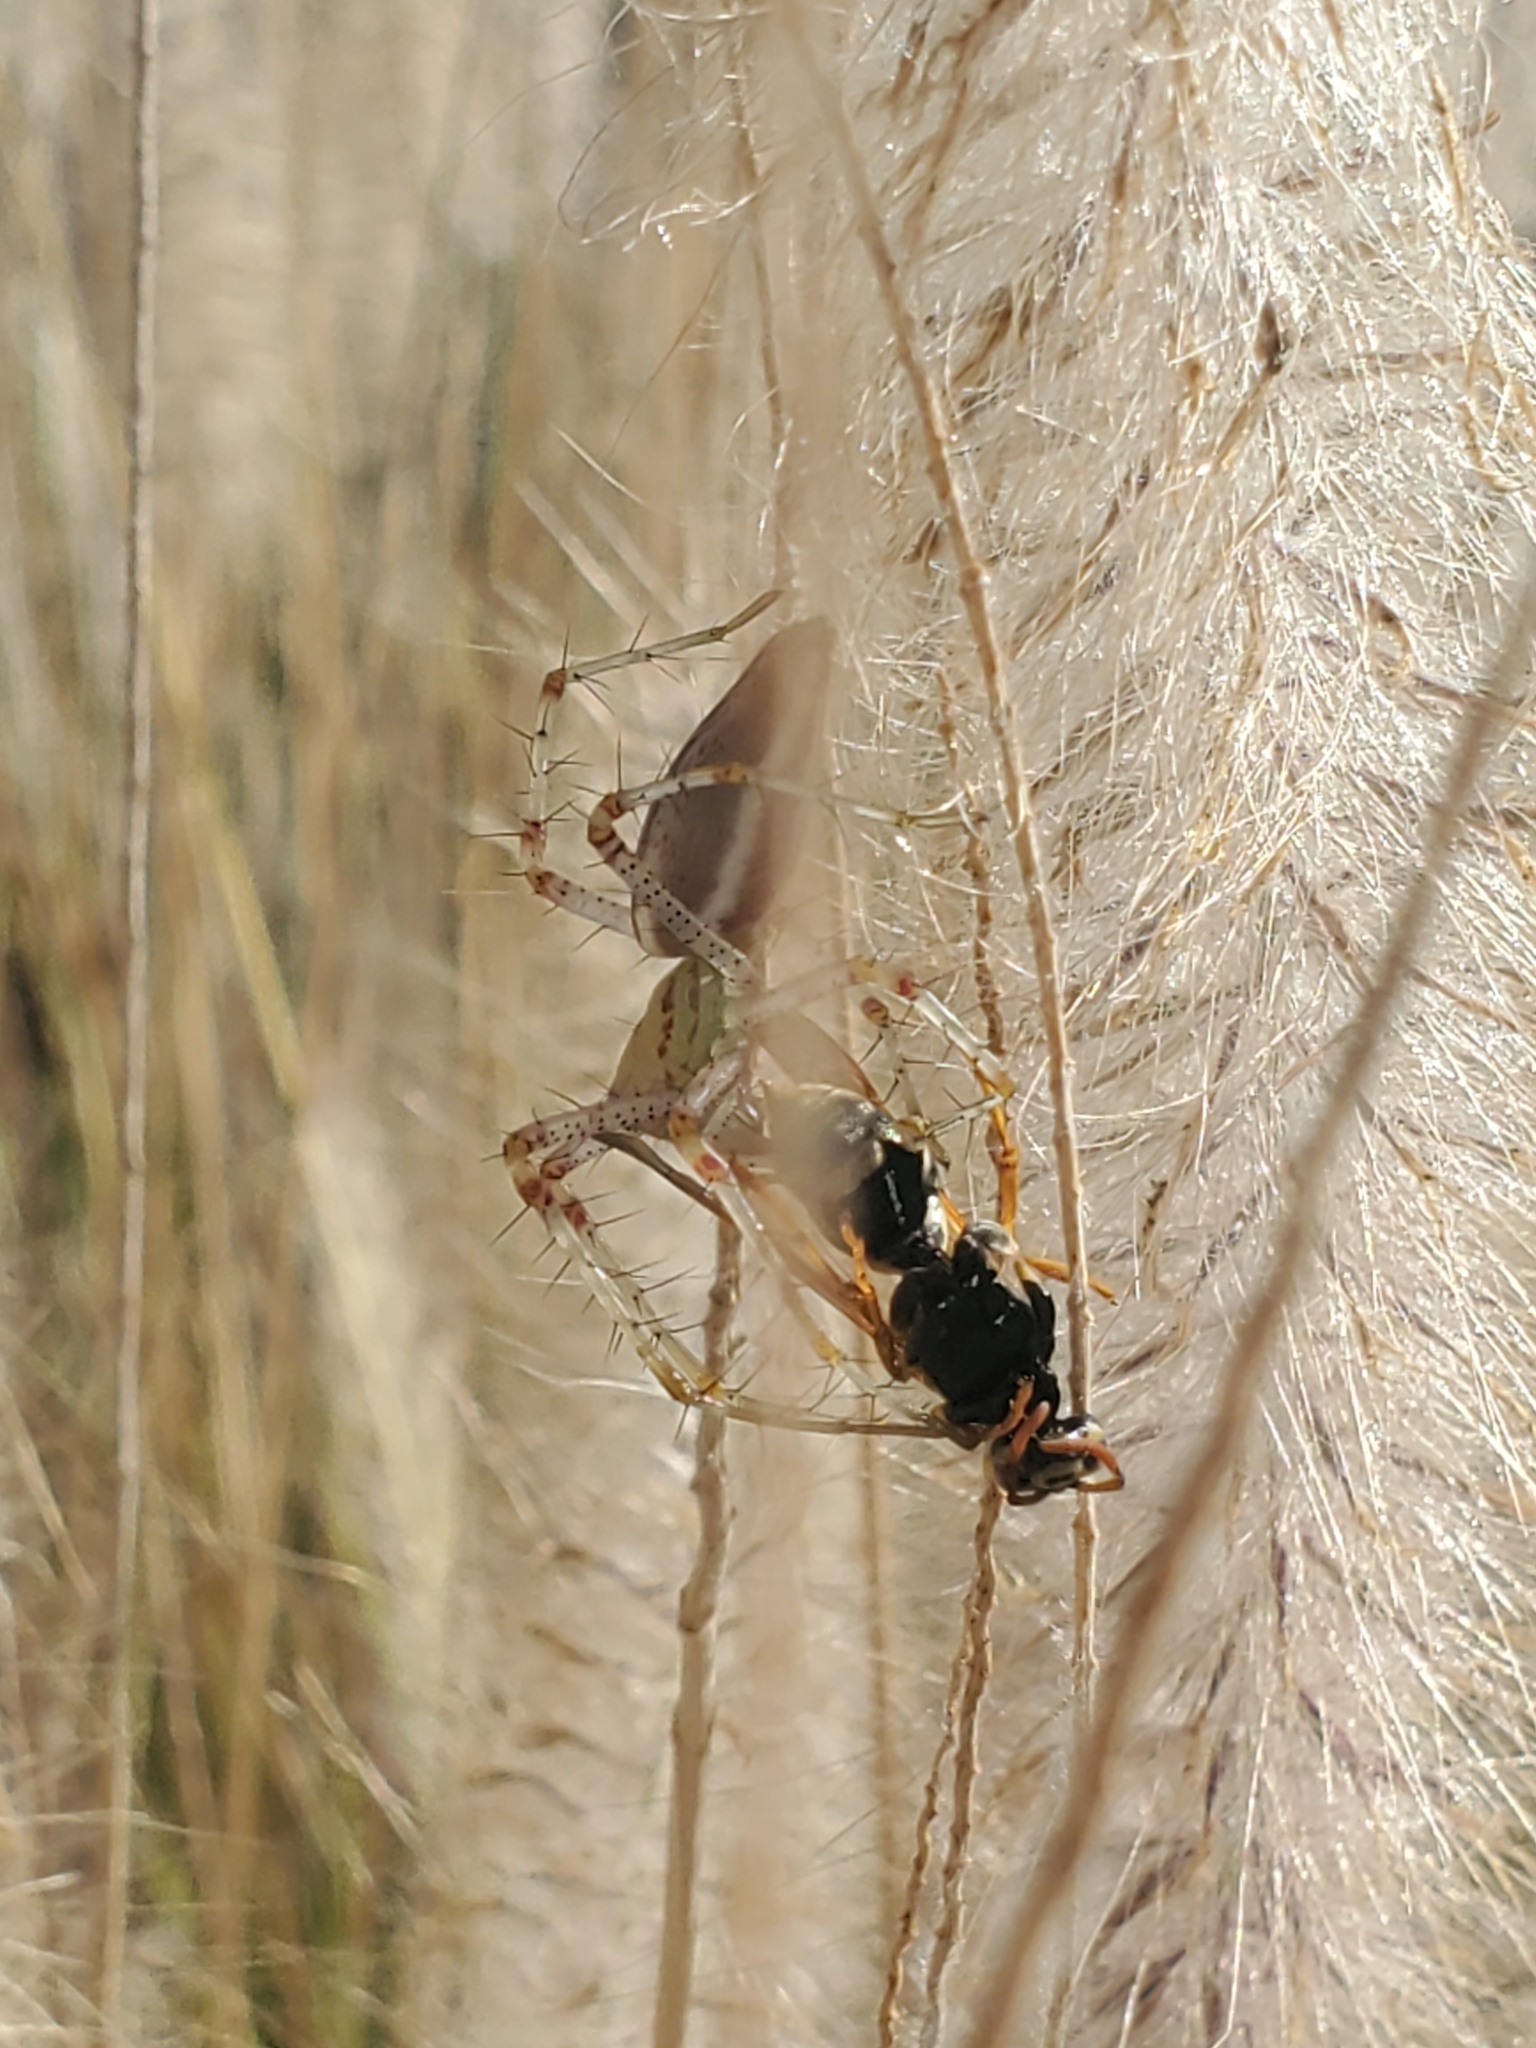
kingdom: Animalia
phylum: Arthropoda
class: Insecta
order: Hymenoptera
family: Eumenidae
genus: Polistes
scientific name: Polistes dominula
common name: Paper wasp
